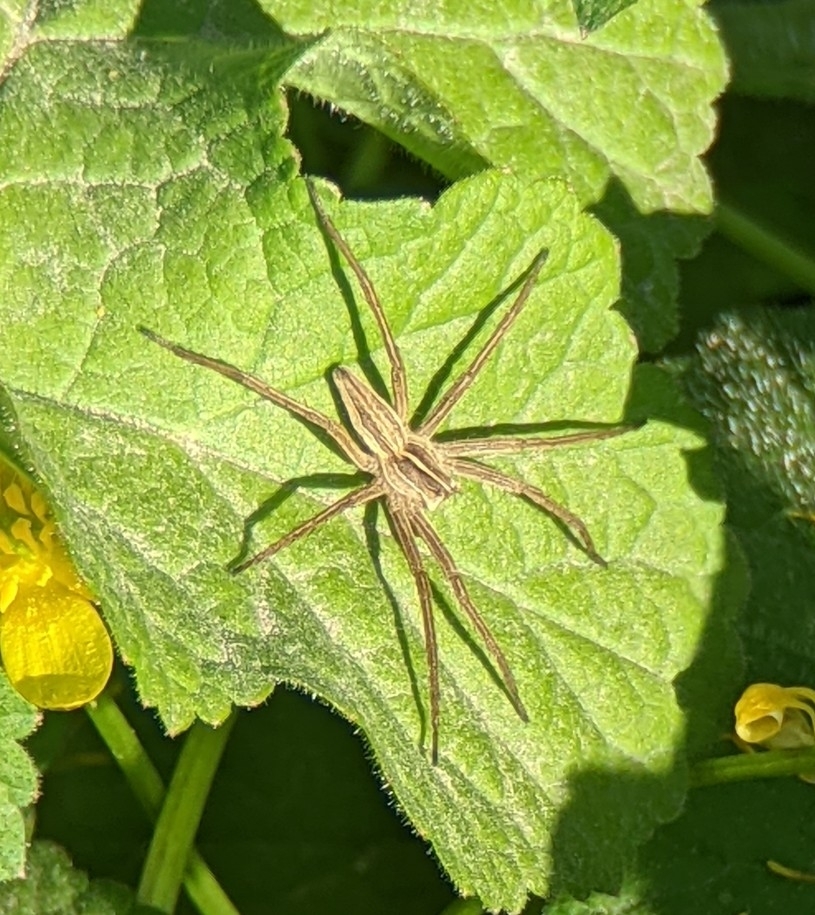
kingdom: Animalia
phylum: Arthropoda
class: Arachnida
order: Araneae
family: Pisauridae
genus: Pisaura
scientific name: Pisaura mirabilis
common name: Tent spider
